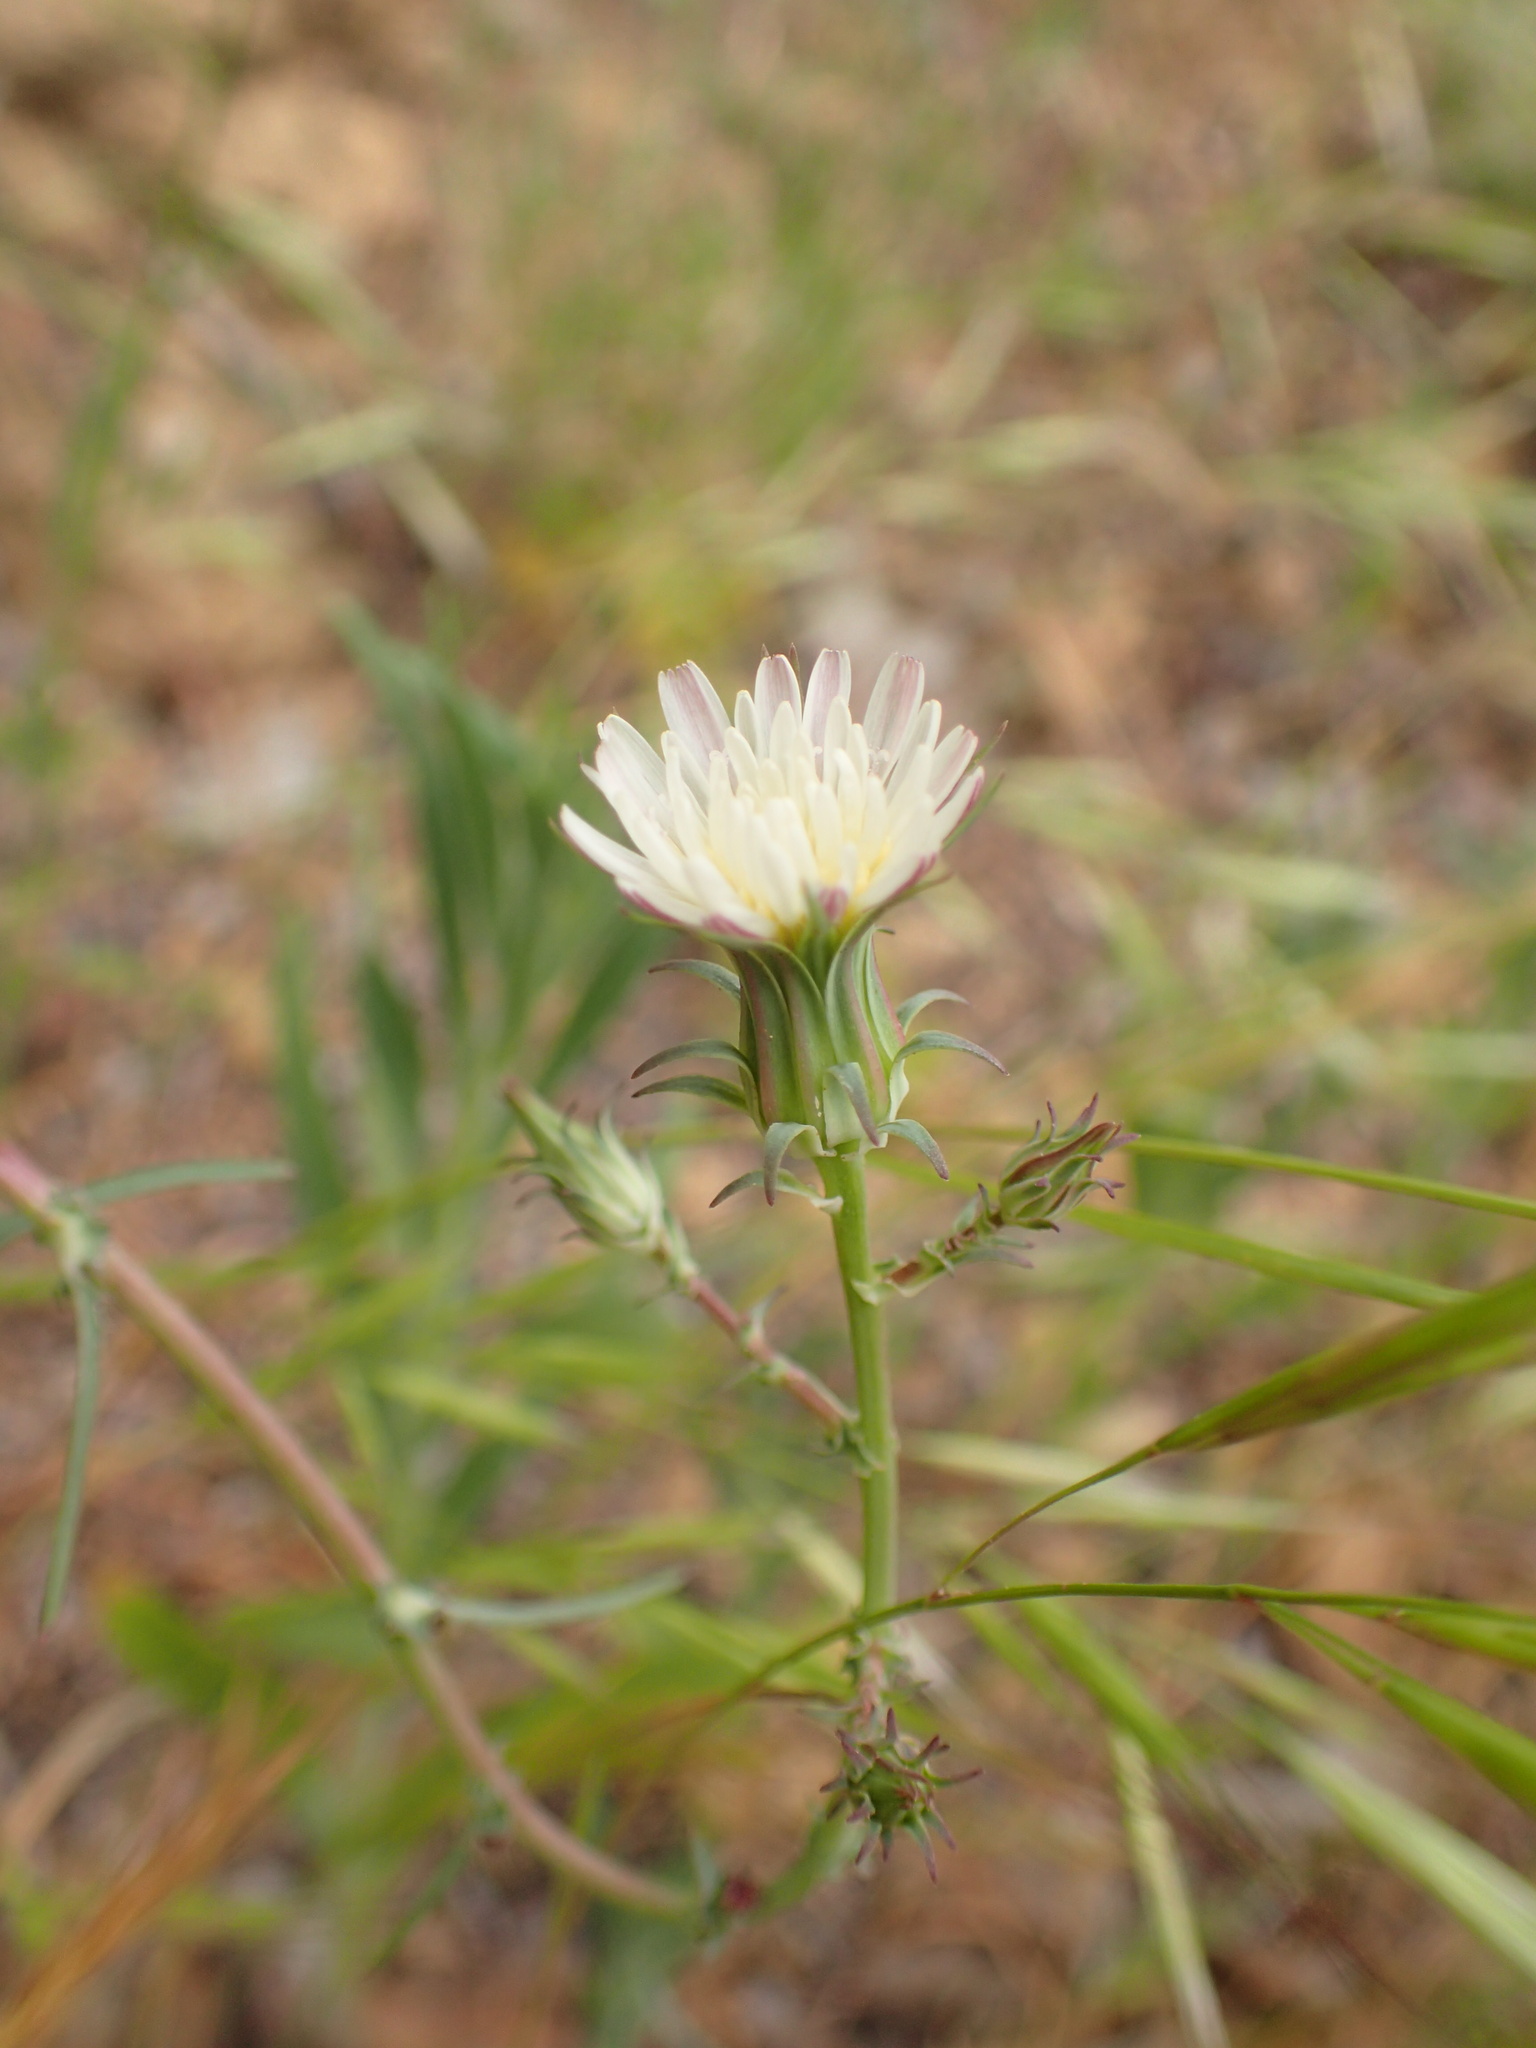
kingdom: Plantae
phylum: Tracheophyta
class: Magnoliopsida
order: Asterales
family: Asteraceae
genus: Rafinesquia
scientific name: Rafinesquia californica
